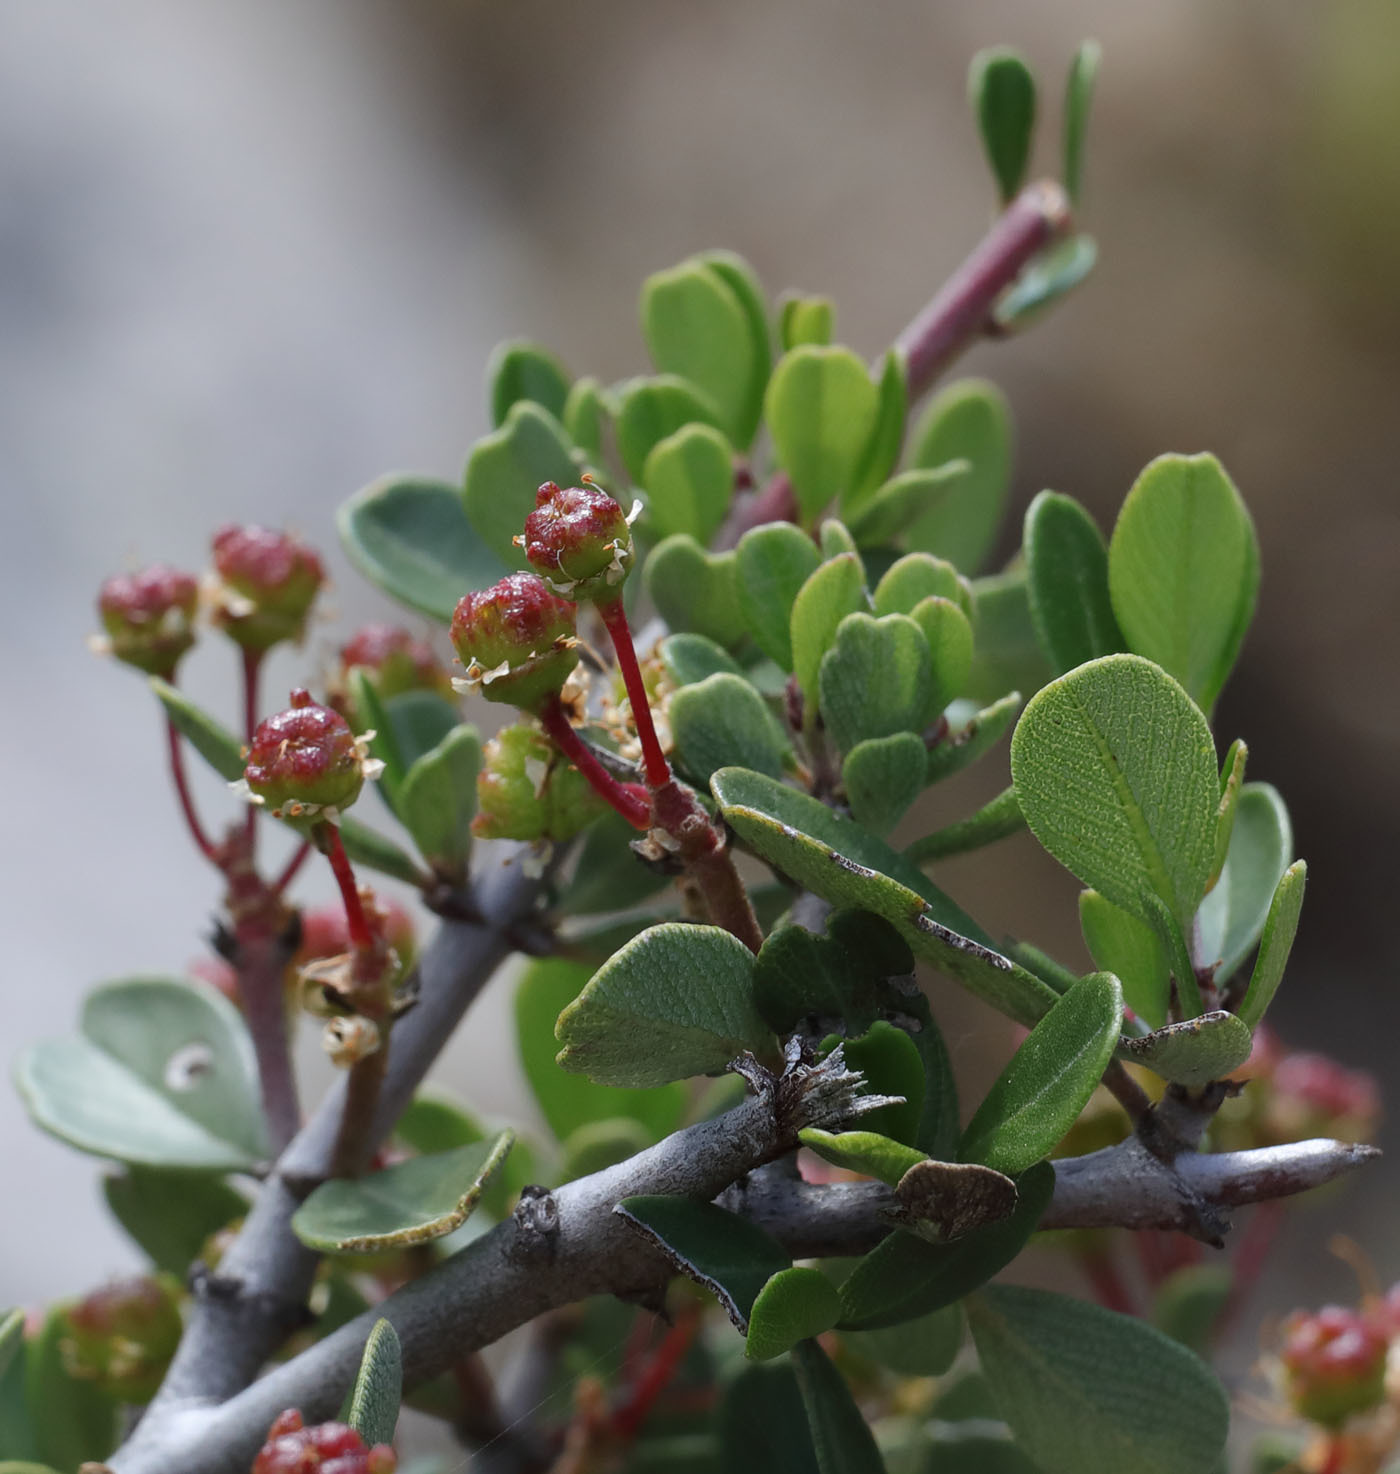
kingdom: Plantae
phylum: Tracheophyta
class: Magnoliopsida
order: Rosales
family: Rhamnaceae
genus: Ceanothus
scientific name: Ceanothus cuneatus
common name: Cuneate ceanothus
